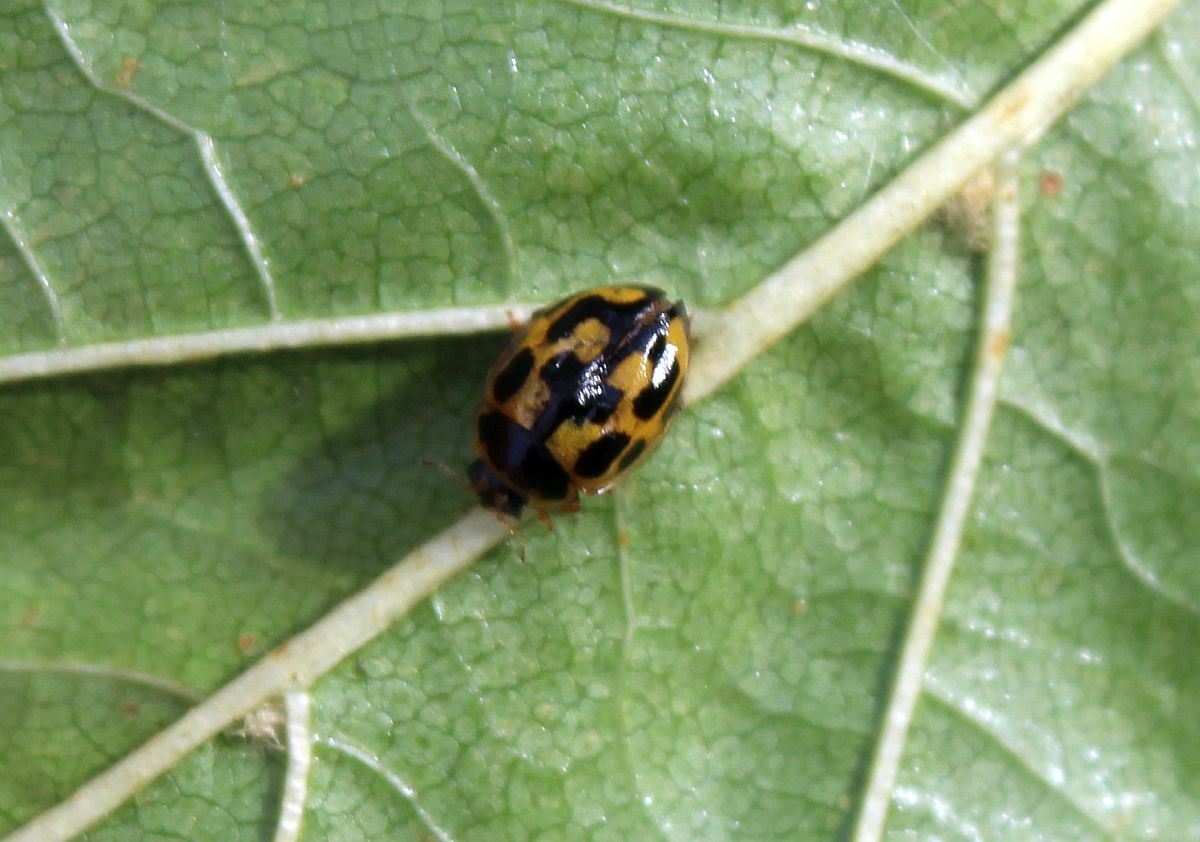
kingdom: Animalia
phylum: Arthropoda
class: Insecta
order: Coleoptera
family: Coccinellidae
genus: Propylaea
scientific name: Propylaea quatuordecimpunctata
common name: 14-spotted ladybird beetle
